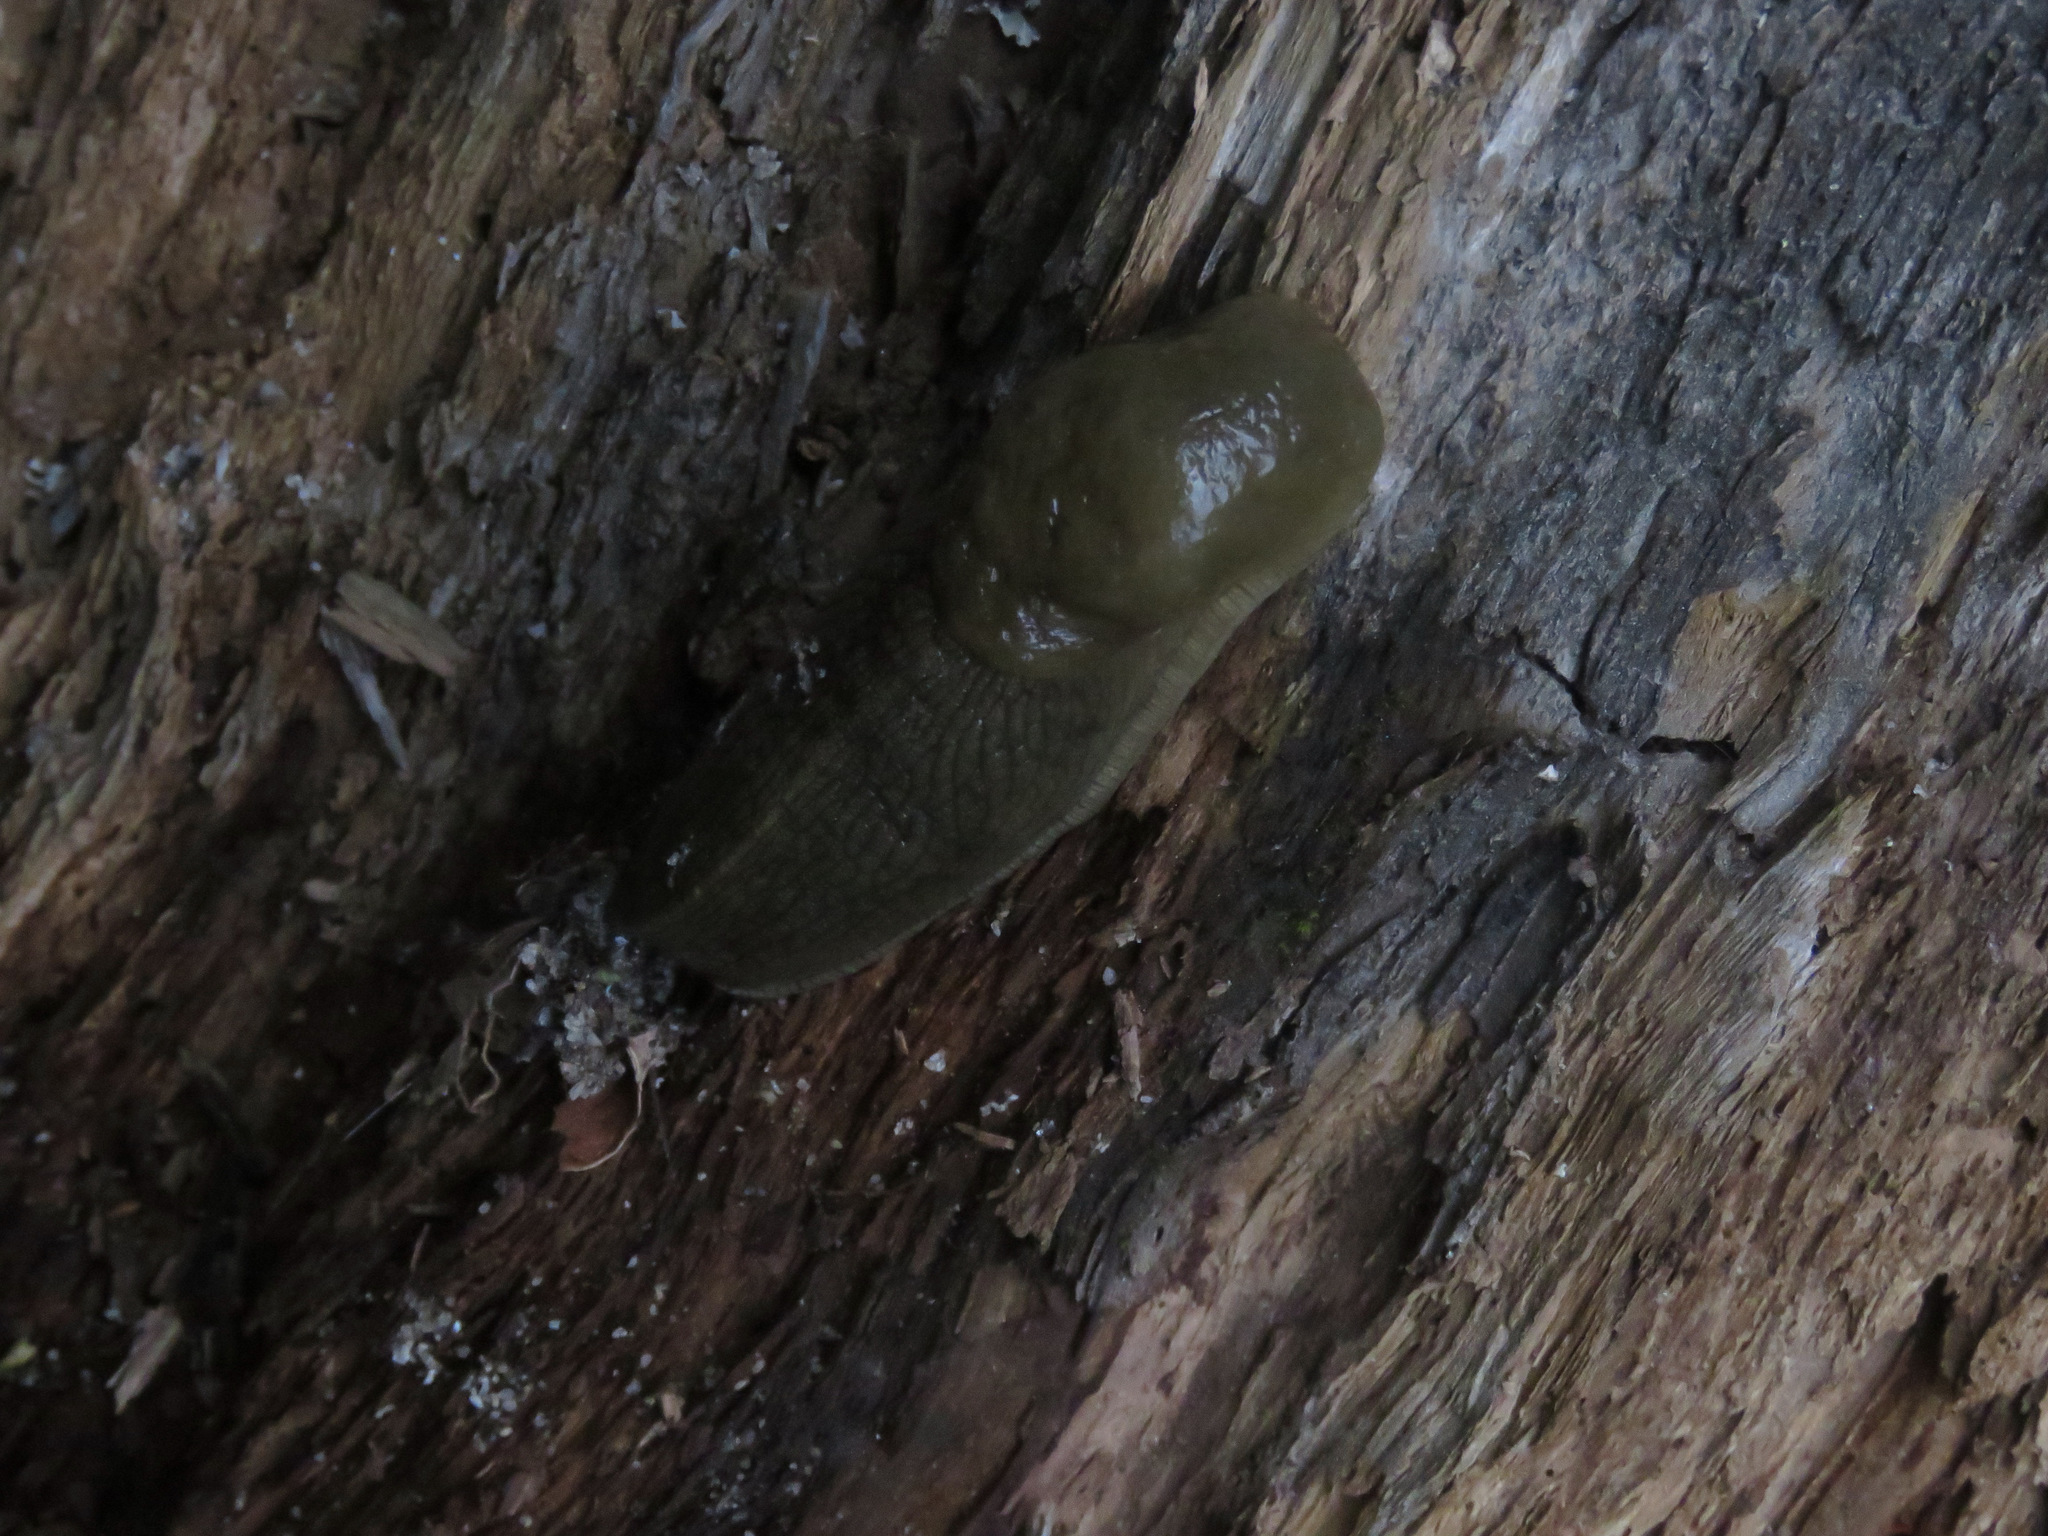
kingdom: Animalia
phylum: Mollusca
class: Gastropoda
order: Stylommatophora
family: Ariolimacidae
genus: Ariolimax
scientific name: Ariolimax columbianus
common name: Pacific banana slug
